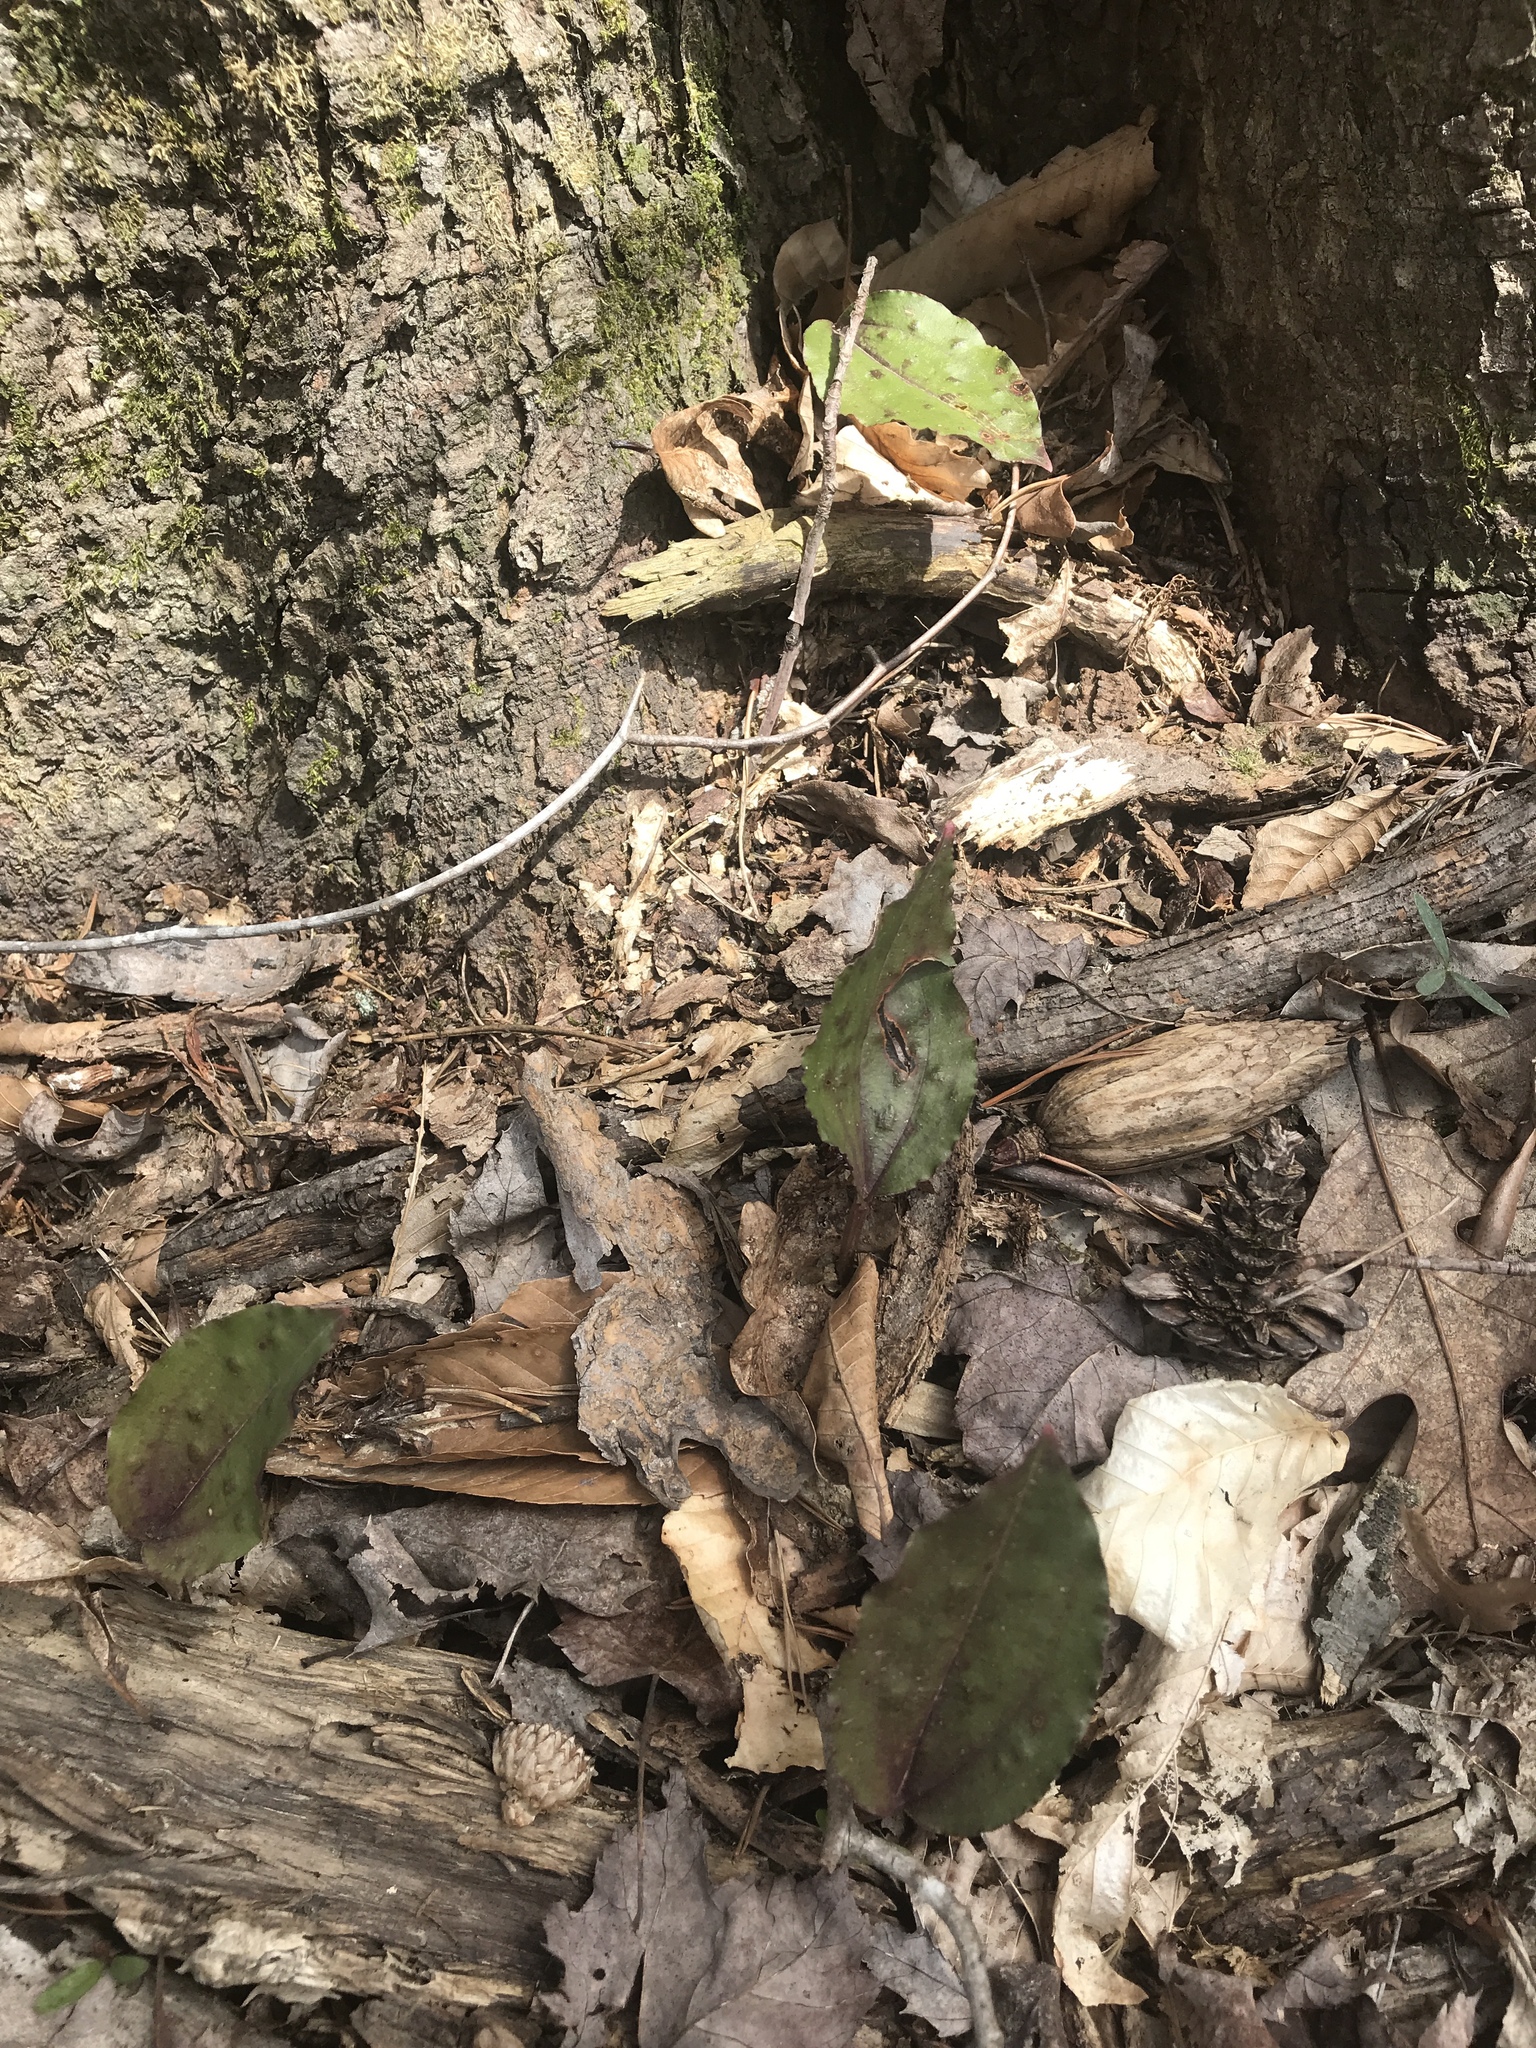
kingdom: Plantae
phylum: Tracheophyta
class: Liliopsida
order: Asparagales
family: Orchidaceae
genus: Tipularia
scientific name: Tipularia discolor
